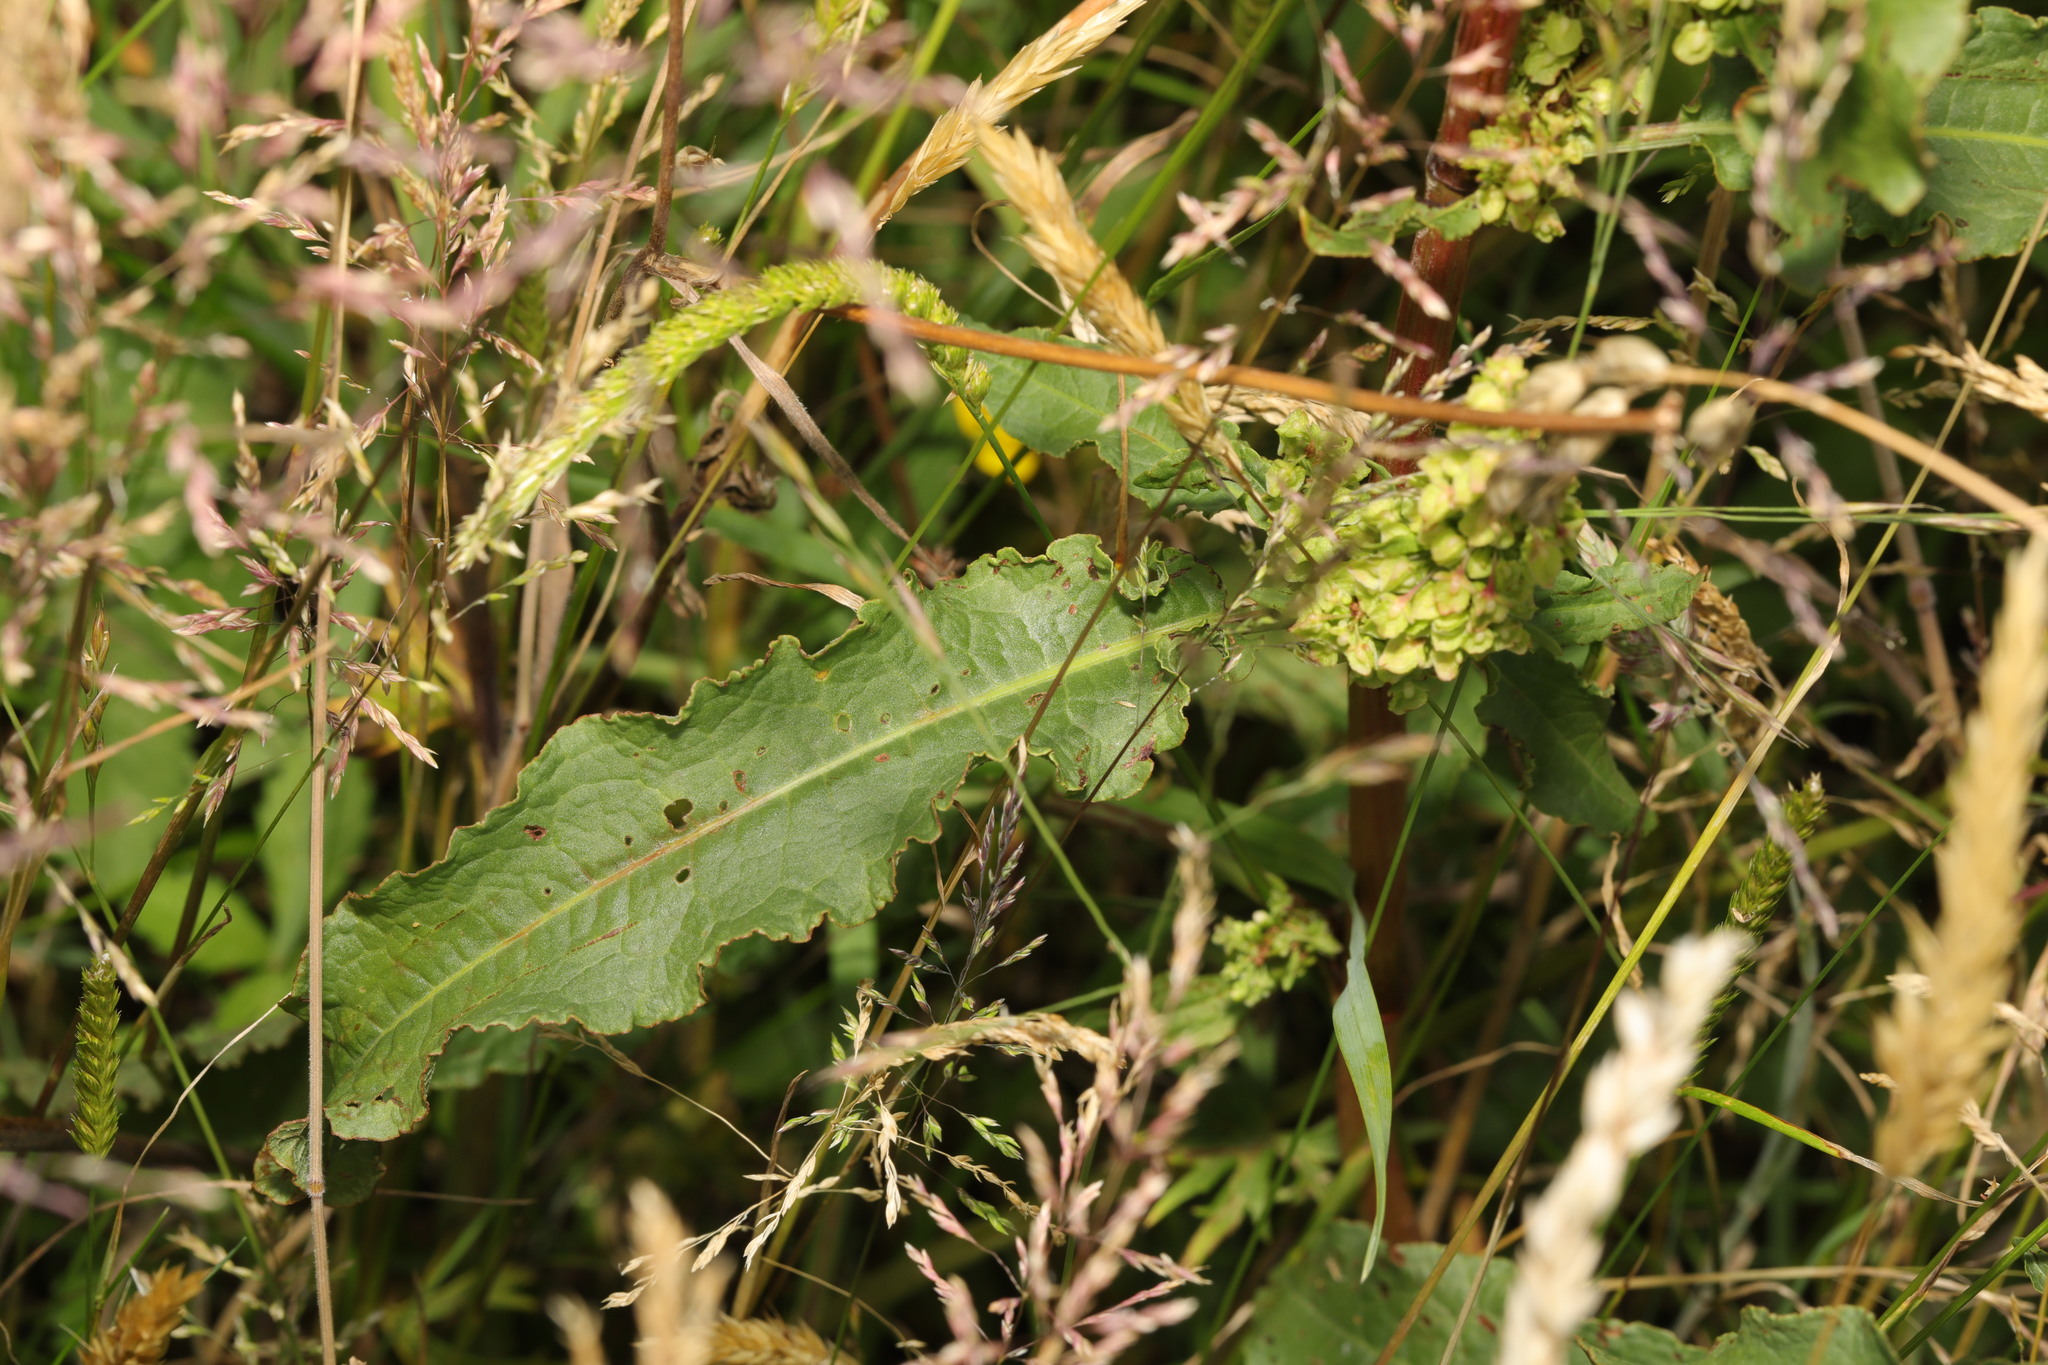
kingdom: Plantae
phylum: Tracheophyta
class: Magnoliopsida
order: Caryophyllales
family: Polygonaceae
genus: Rumex
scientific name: Rumex crispus
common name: Curled dock
